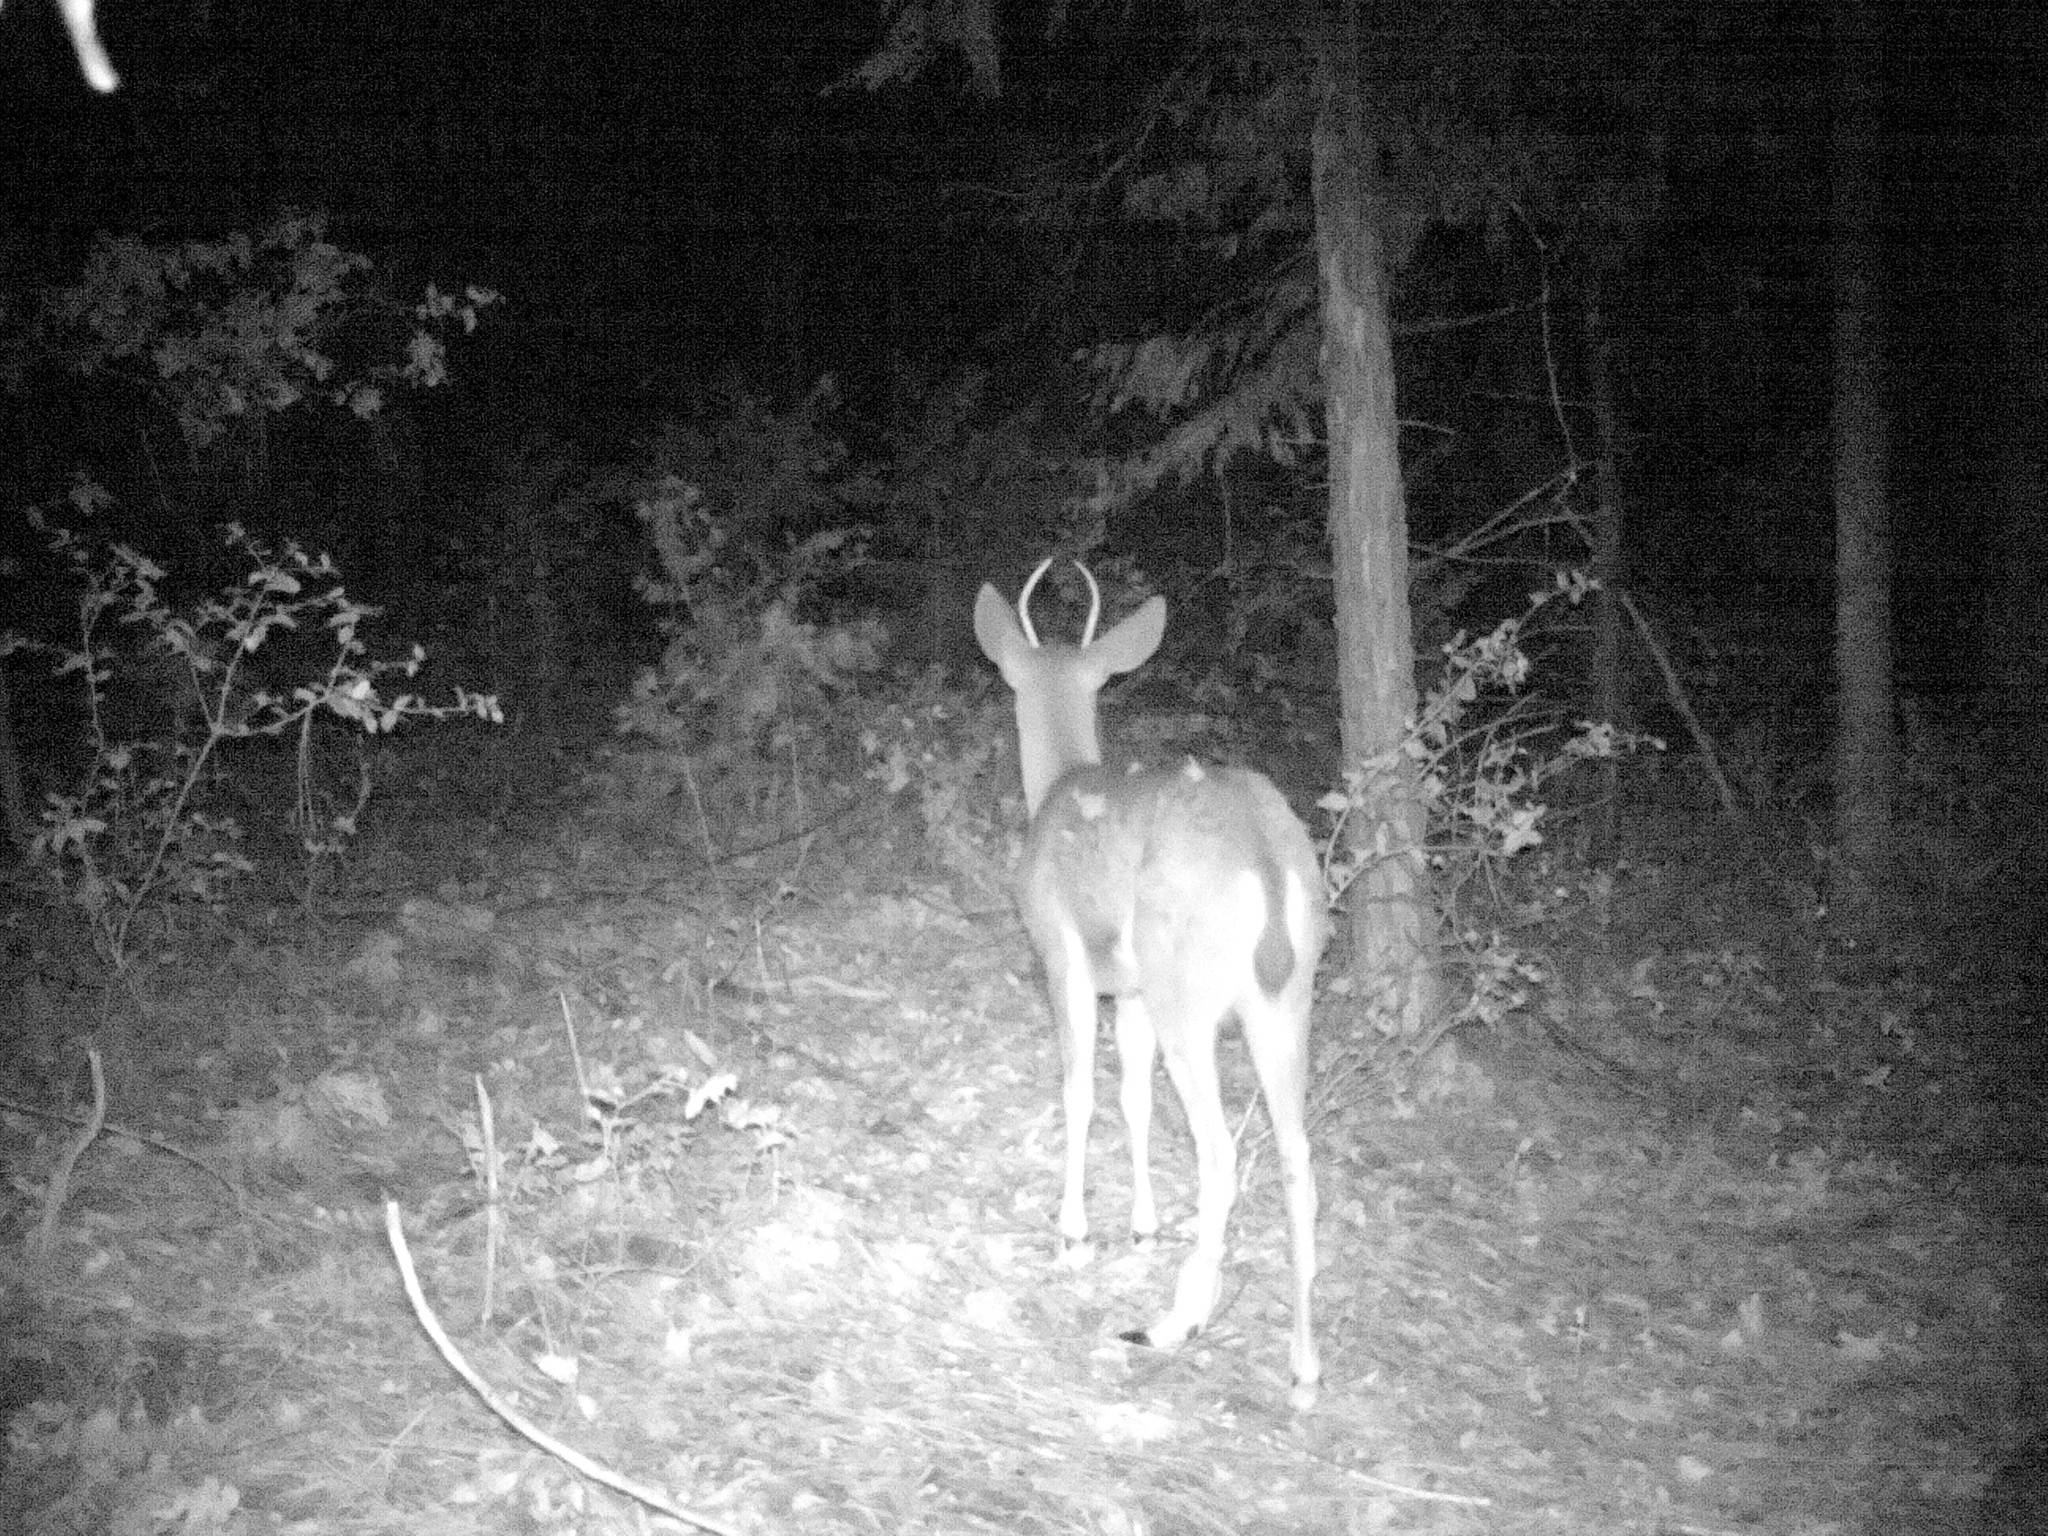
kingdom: Animalia
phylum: Chordata
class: Mammalia
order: Artiodactyla
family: Cervidae
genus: Odocoileus
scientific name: Odocoileus hemionus
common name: Mule deer
